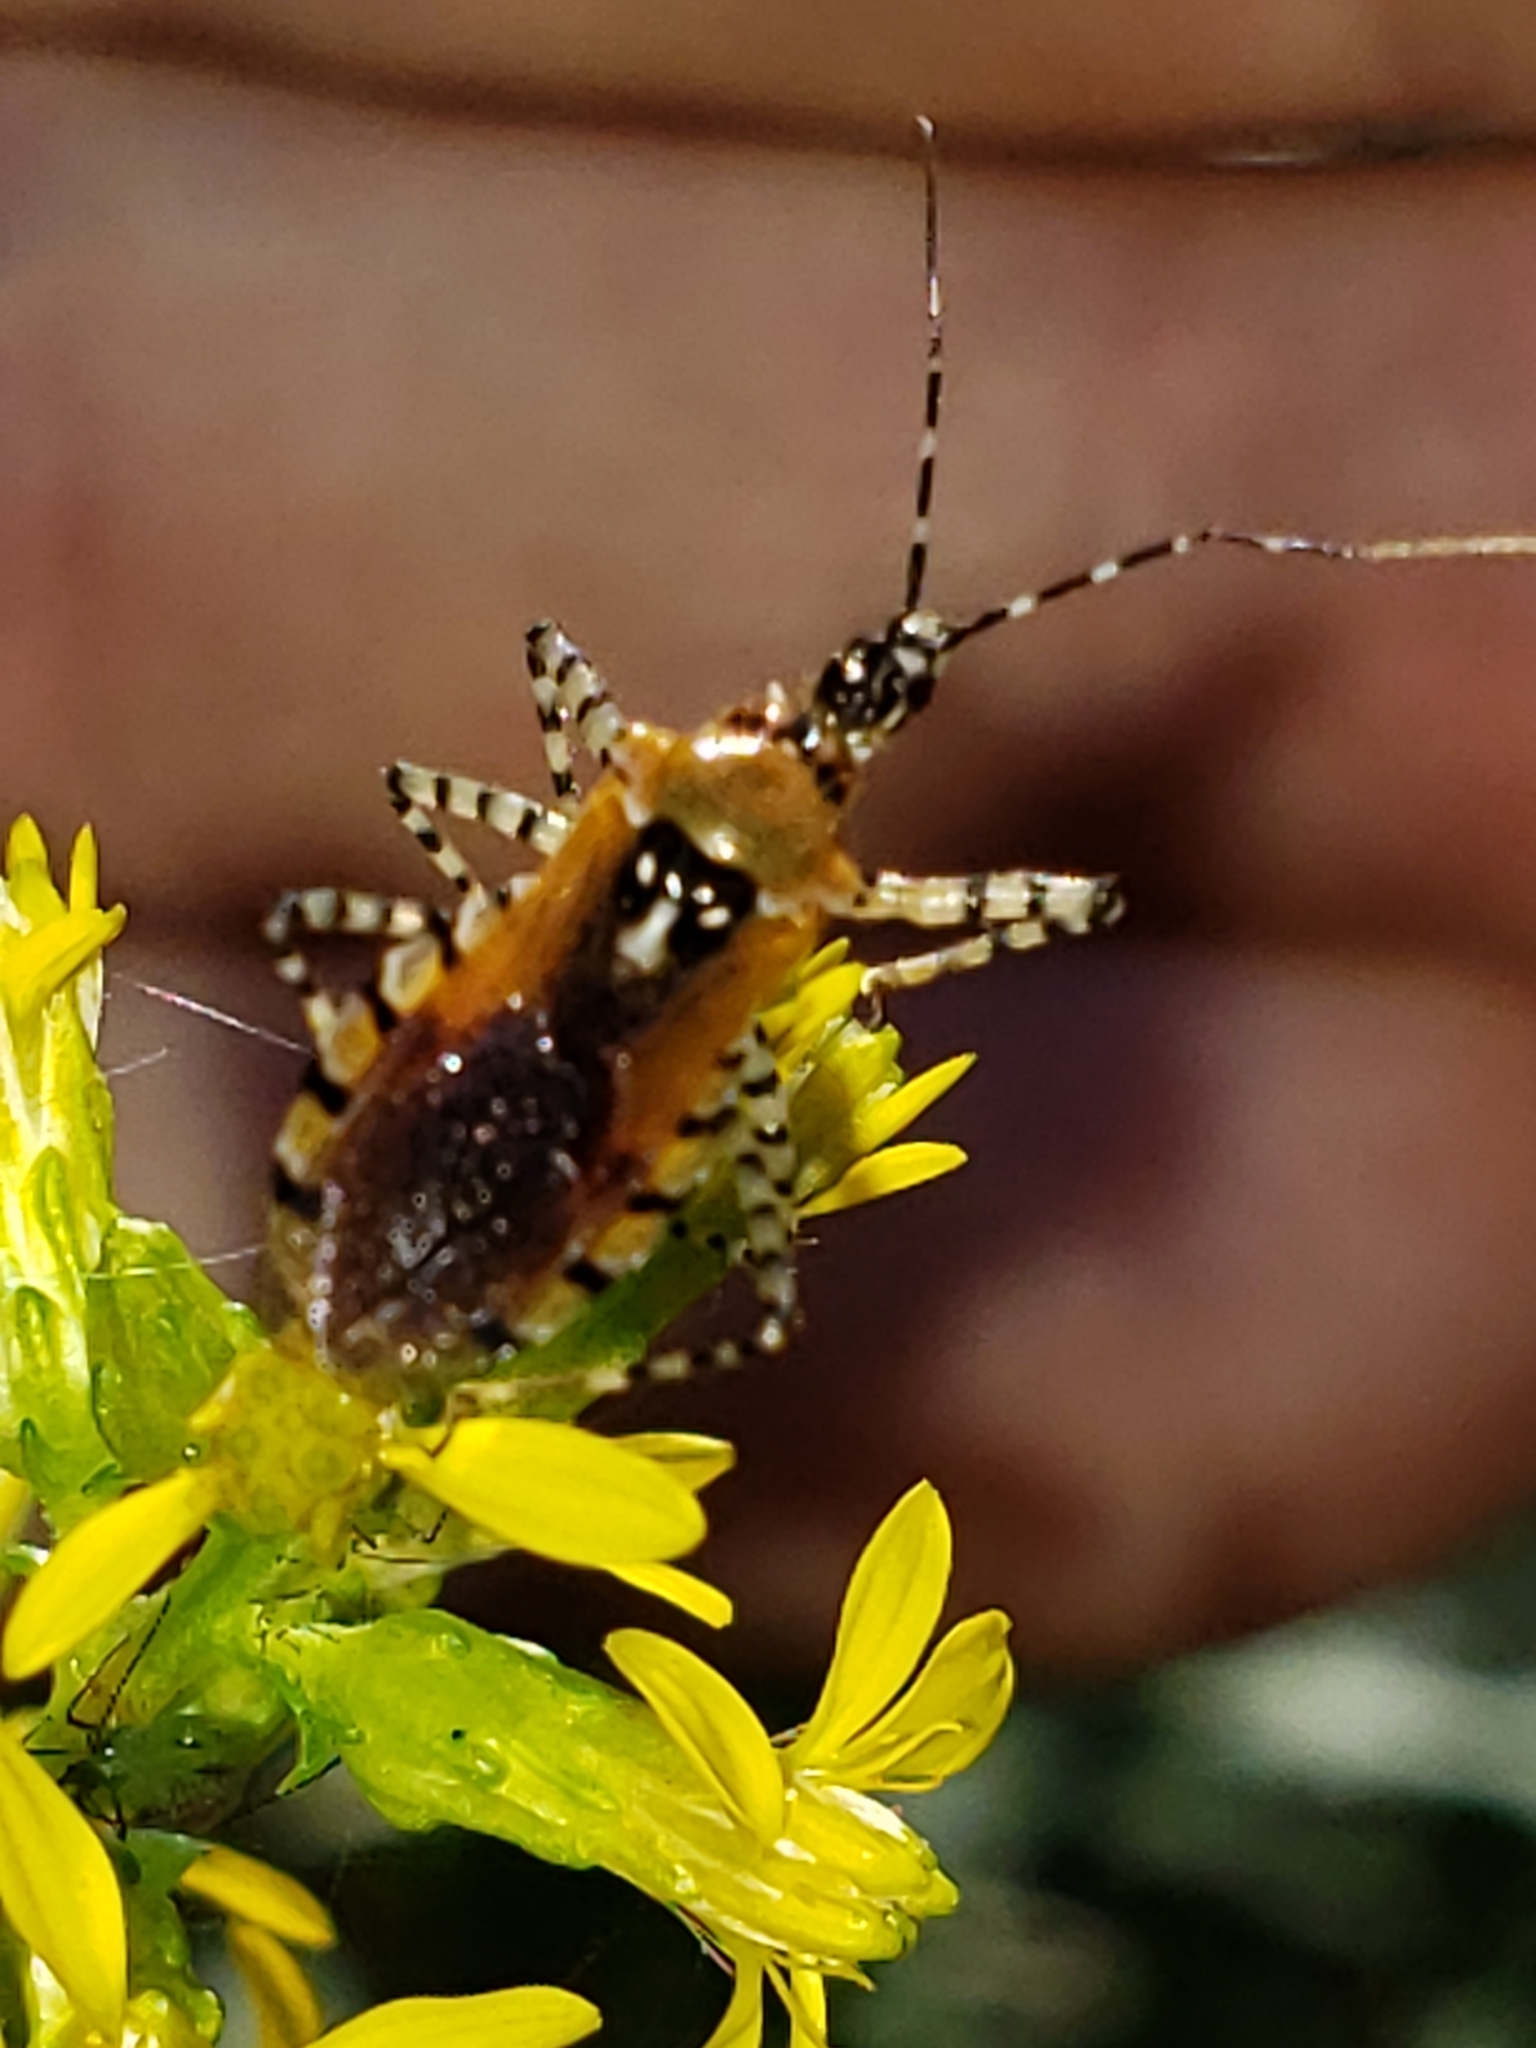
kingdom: Animalia
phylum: Arthropoda
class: Insecta
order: Hemiptera
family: Reduviidae
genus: Pselliopus
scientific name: Pselliopus cinctus
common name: Ringed assassin bug
